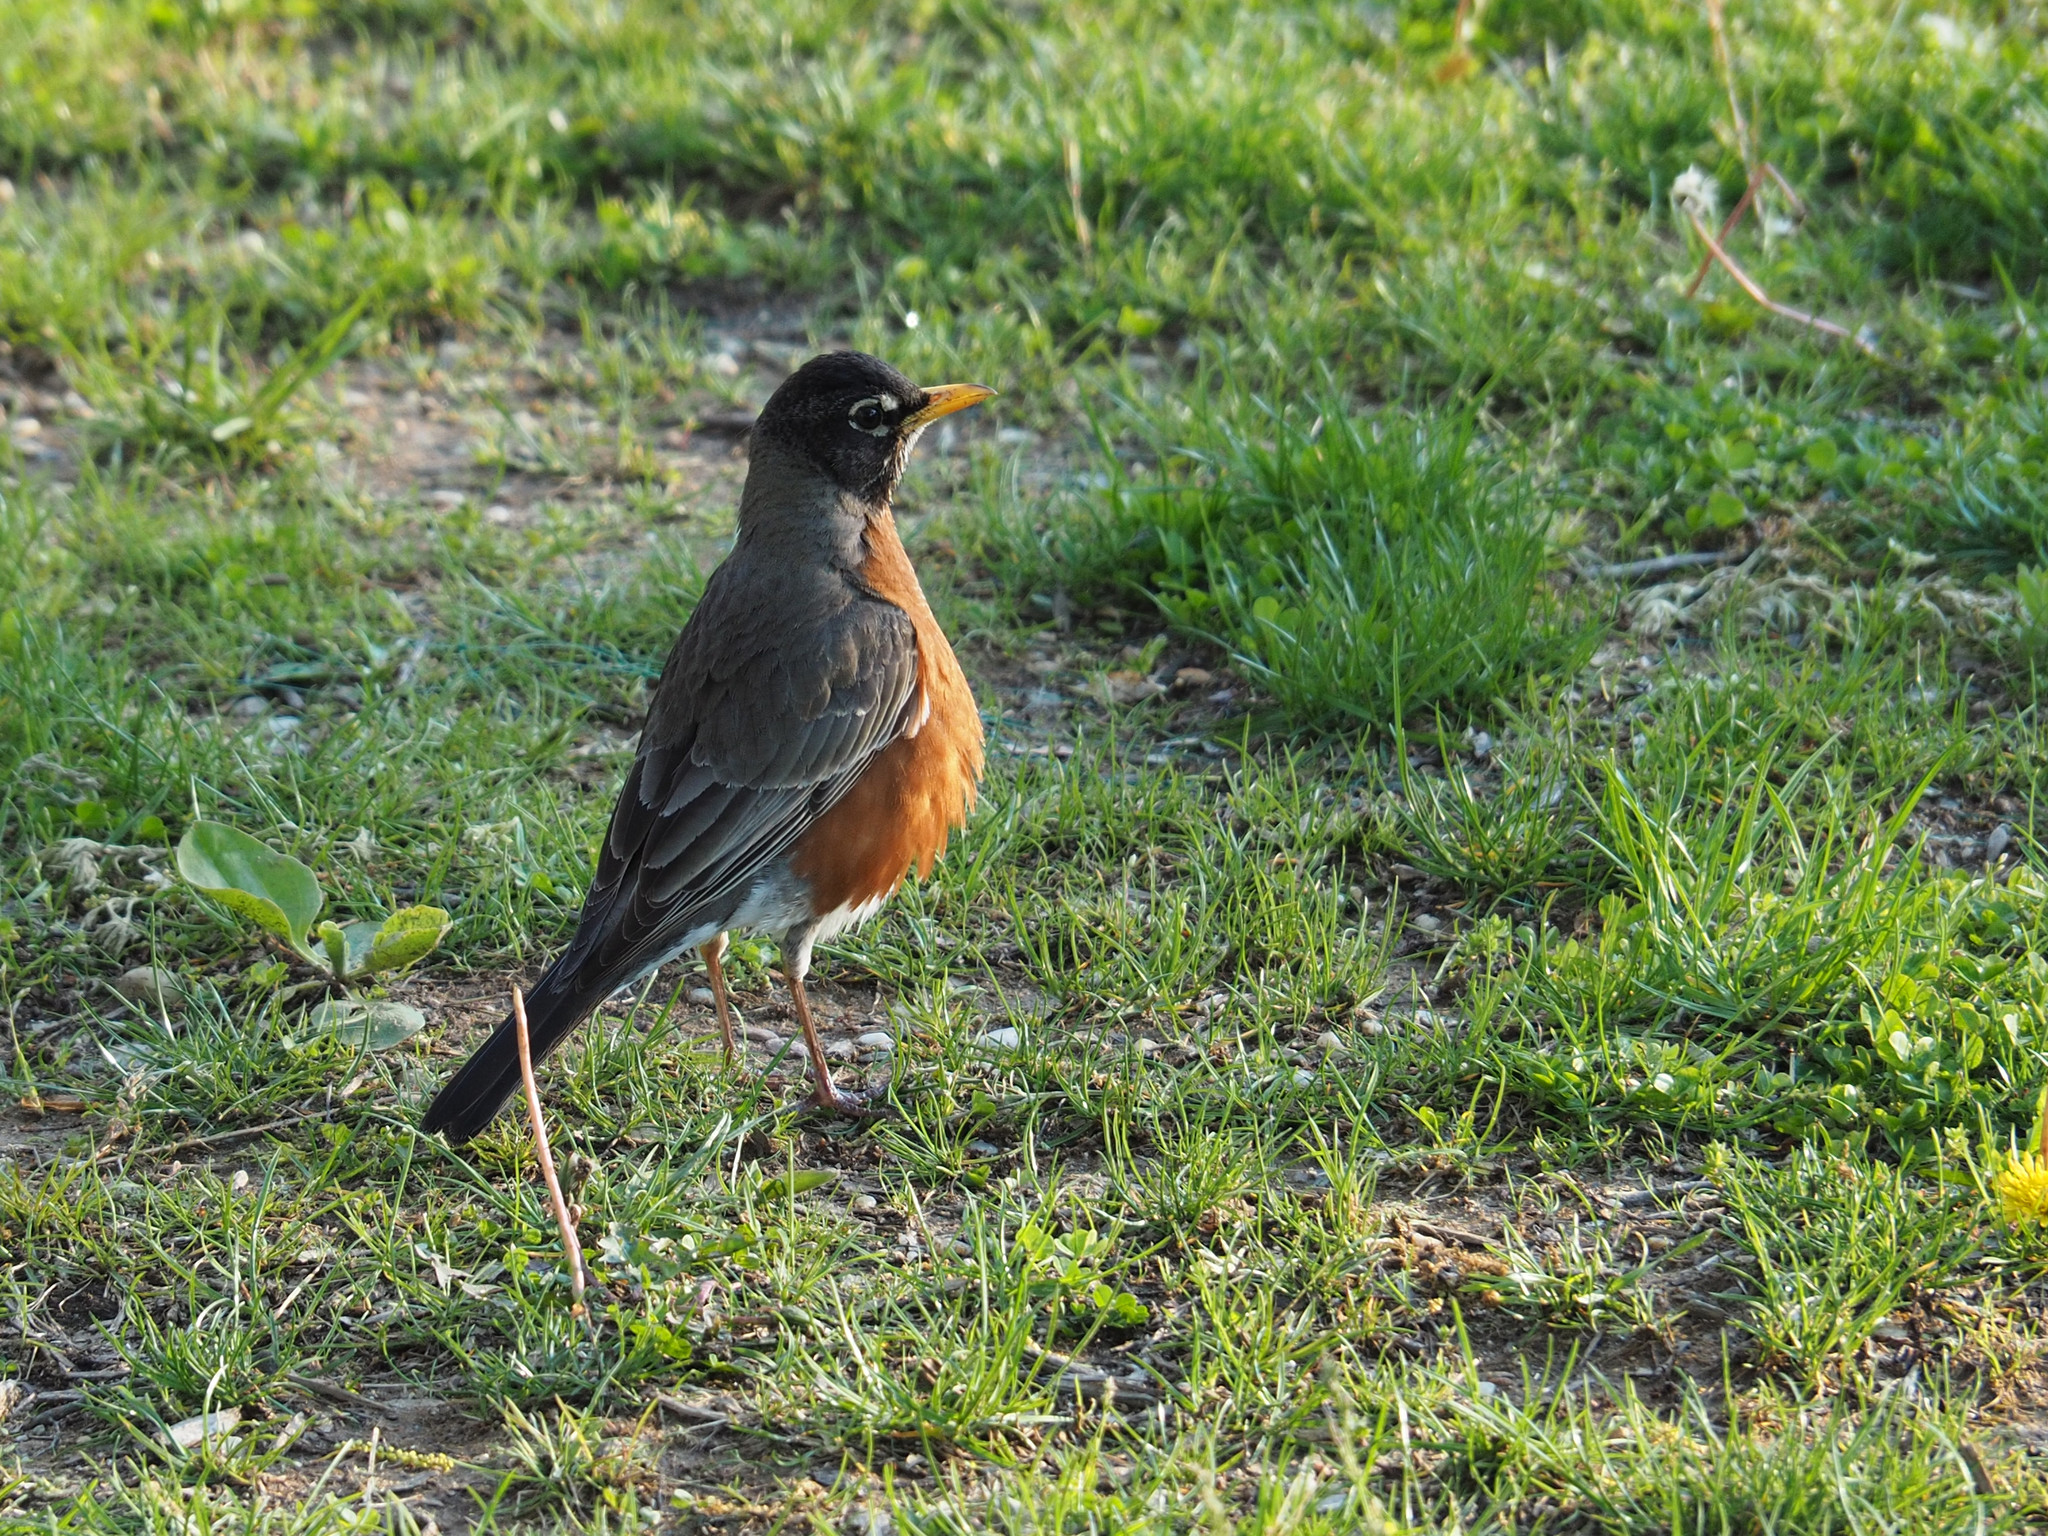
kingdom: Animalia
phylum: Chordata
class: Aves
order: Passeriformes
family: Turdidae
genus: Turdus
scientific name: Turdus migratorius
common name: American robin
